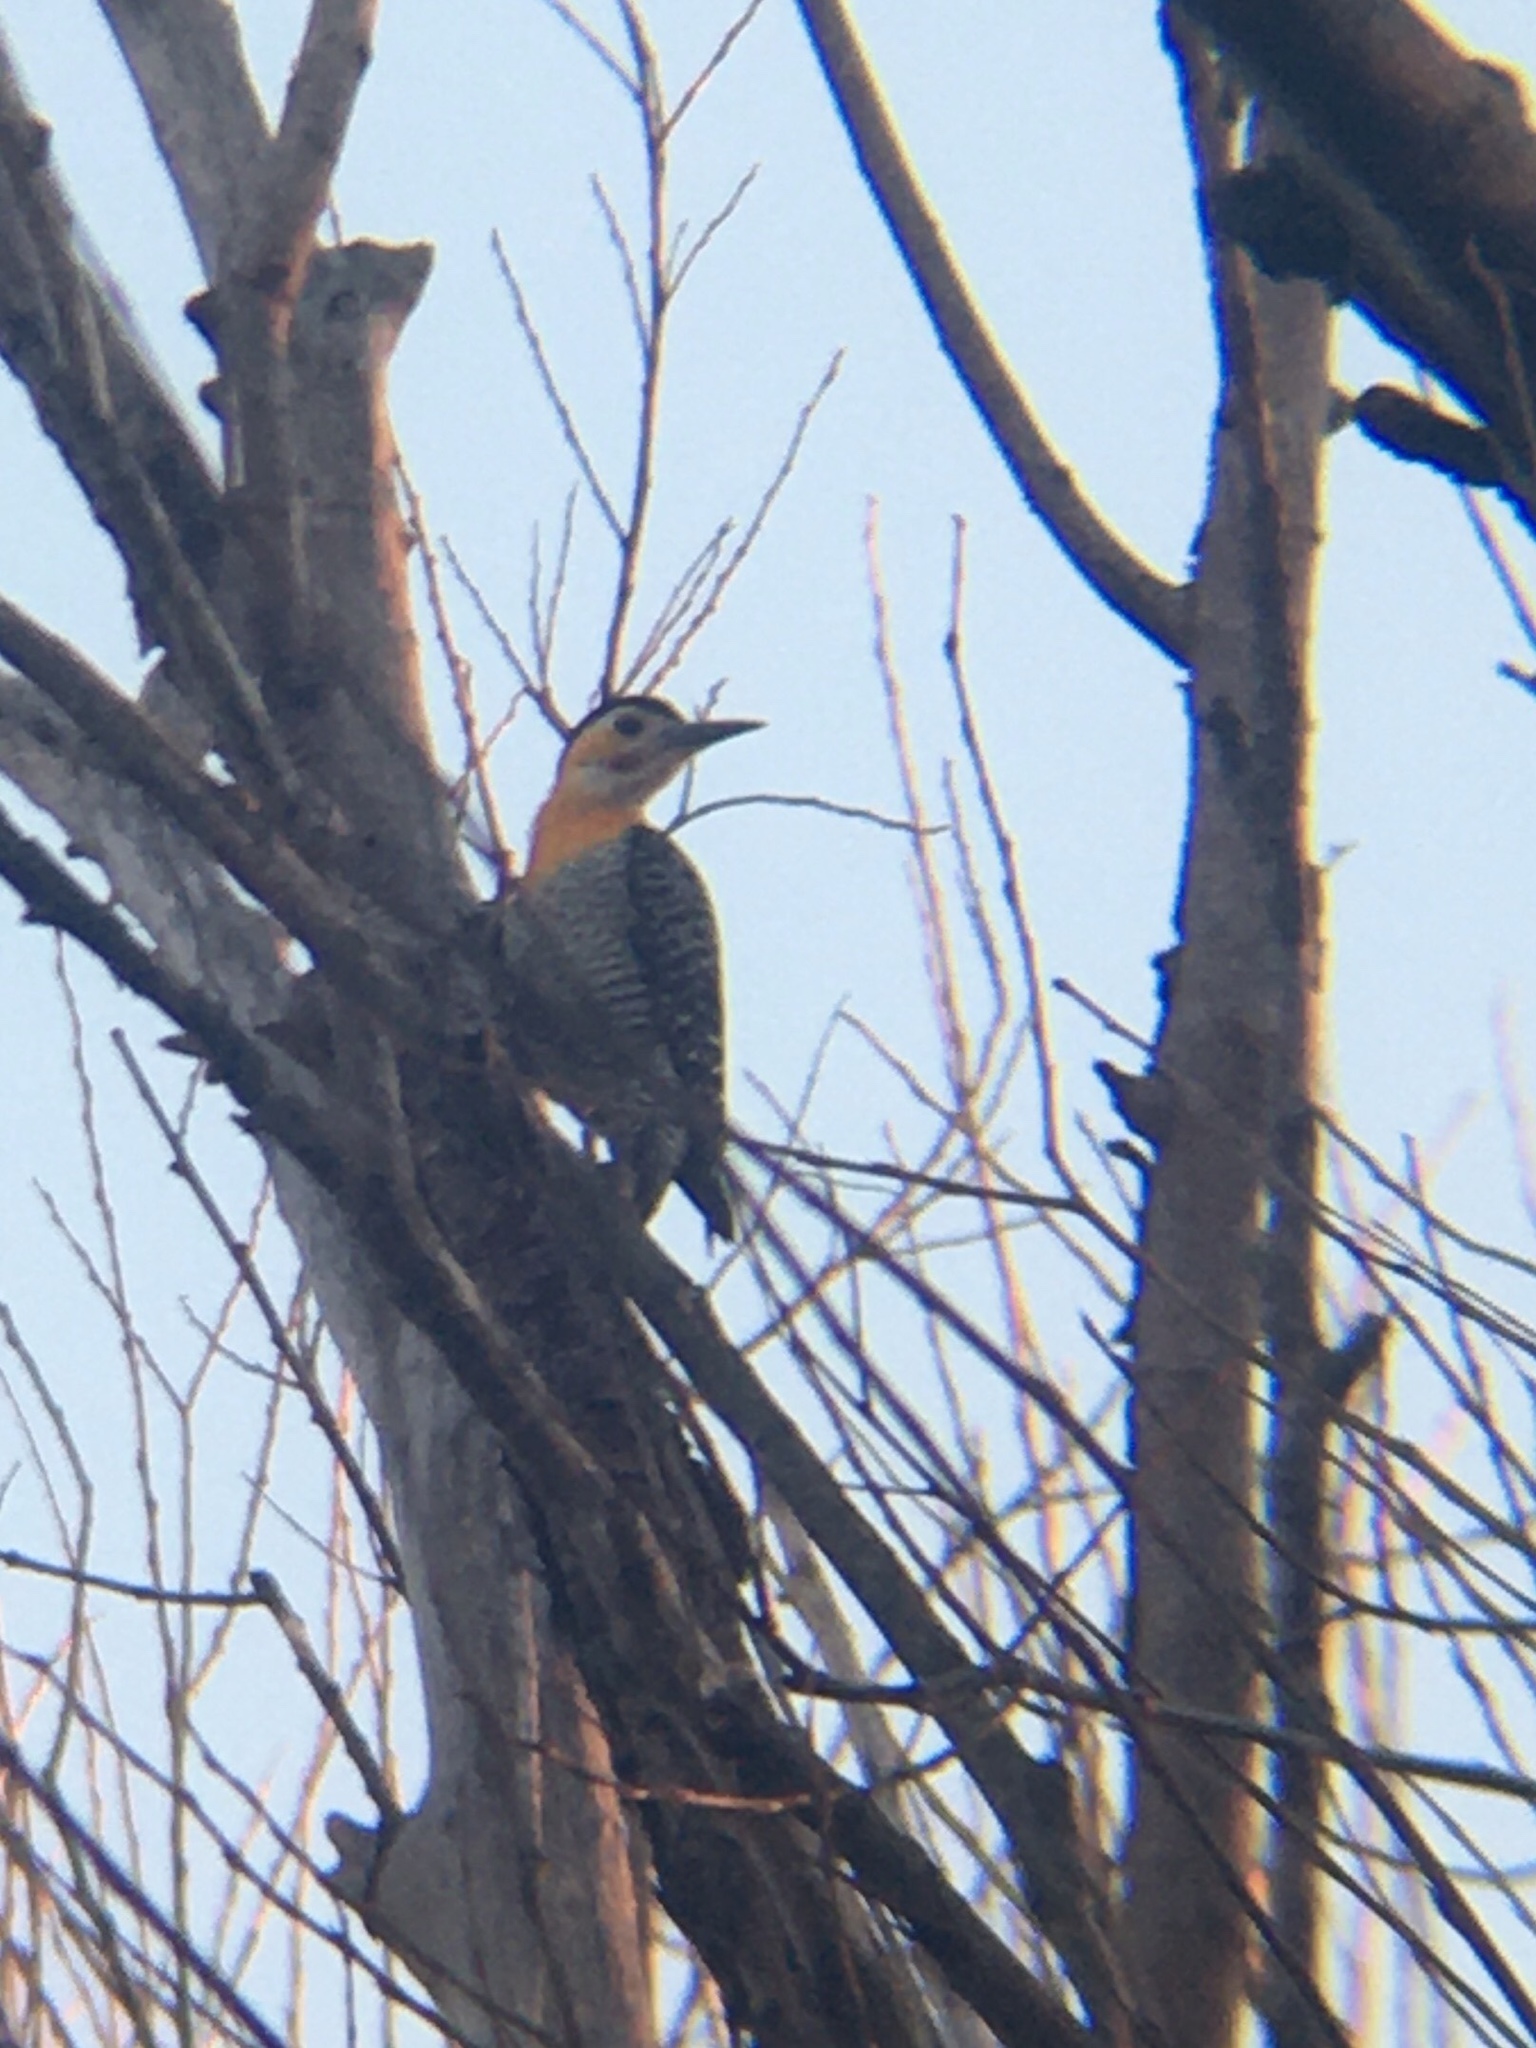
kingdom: Animalia
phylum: Chordata
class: Aves
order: Piciformes
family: Picidae
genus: Colaptes
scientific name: Colaptes campestris
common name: Campo flicker
